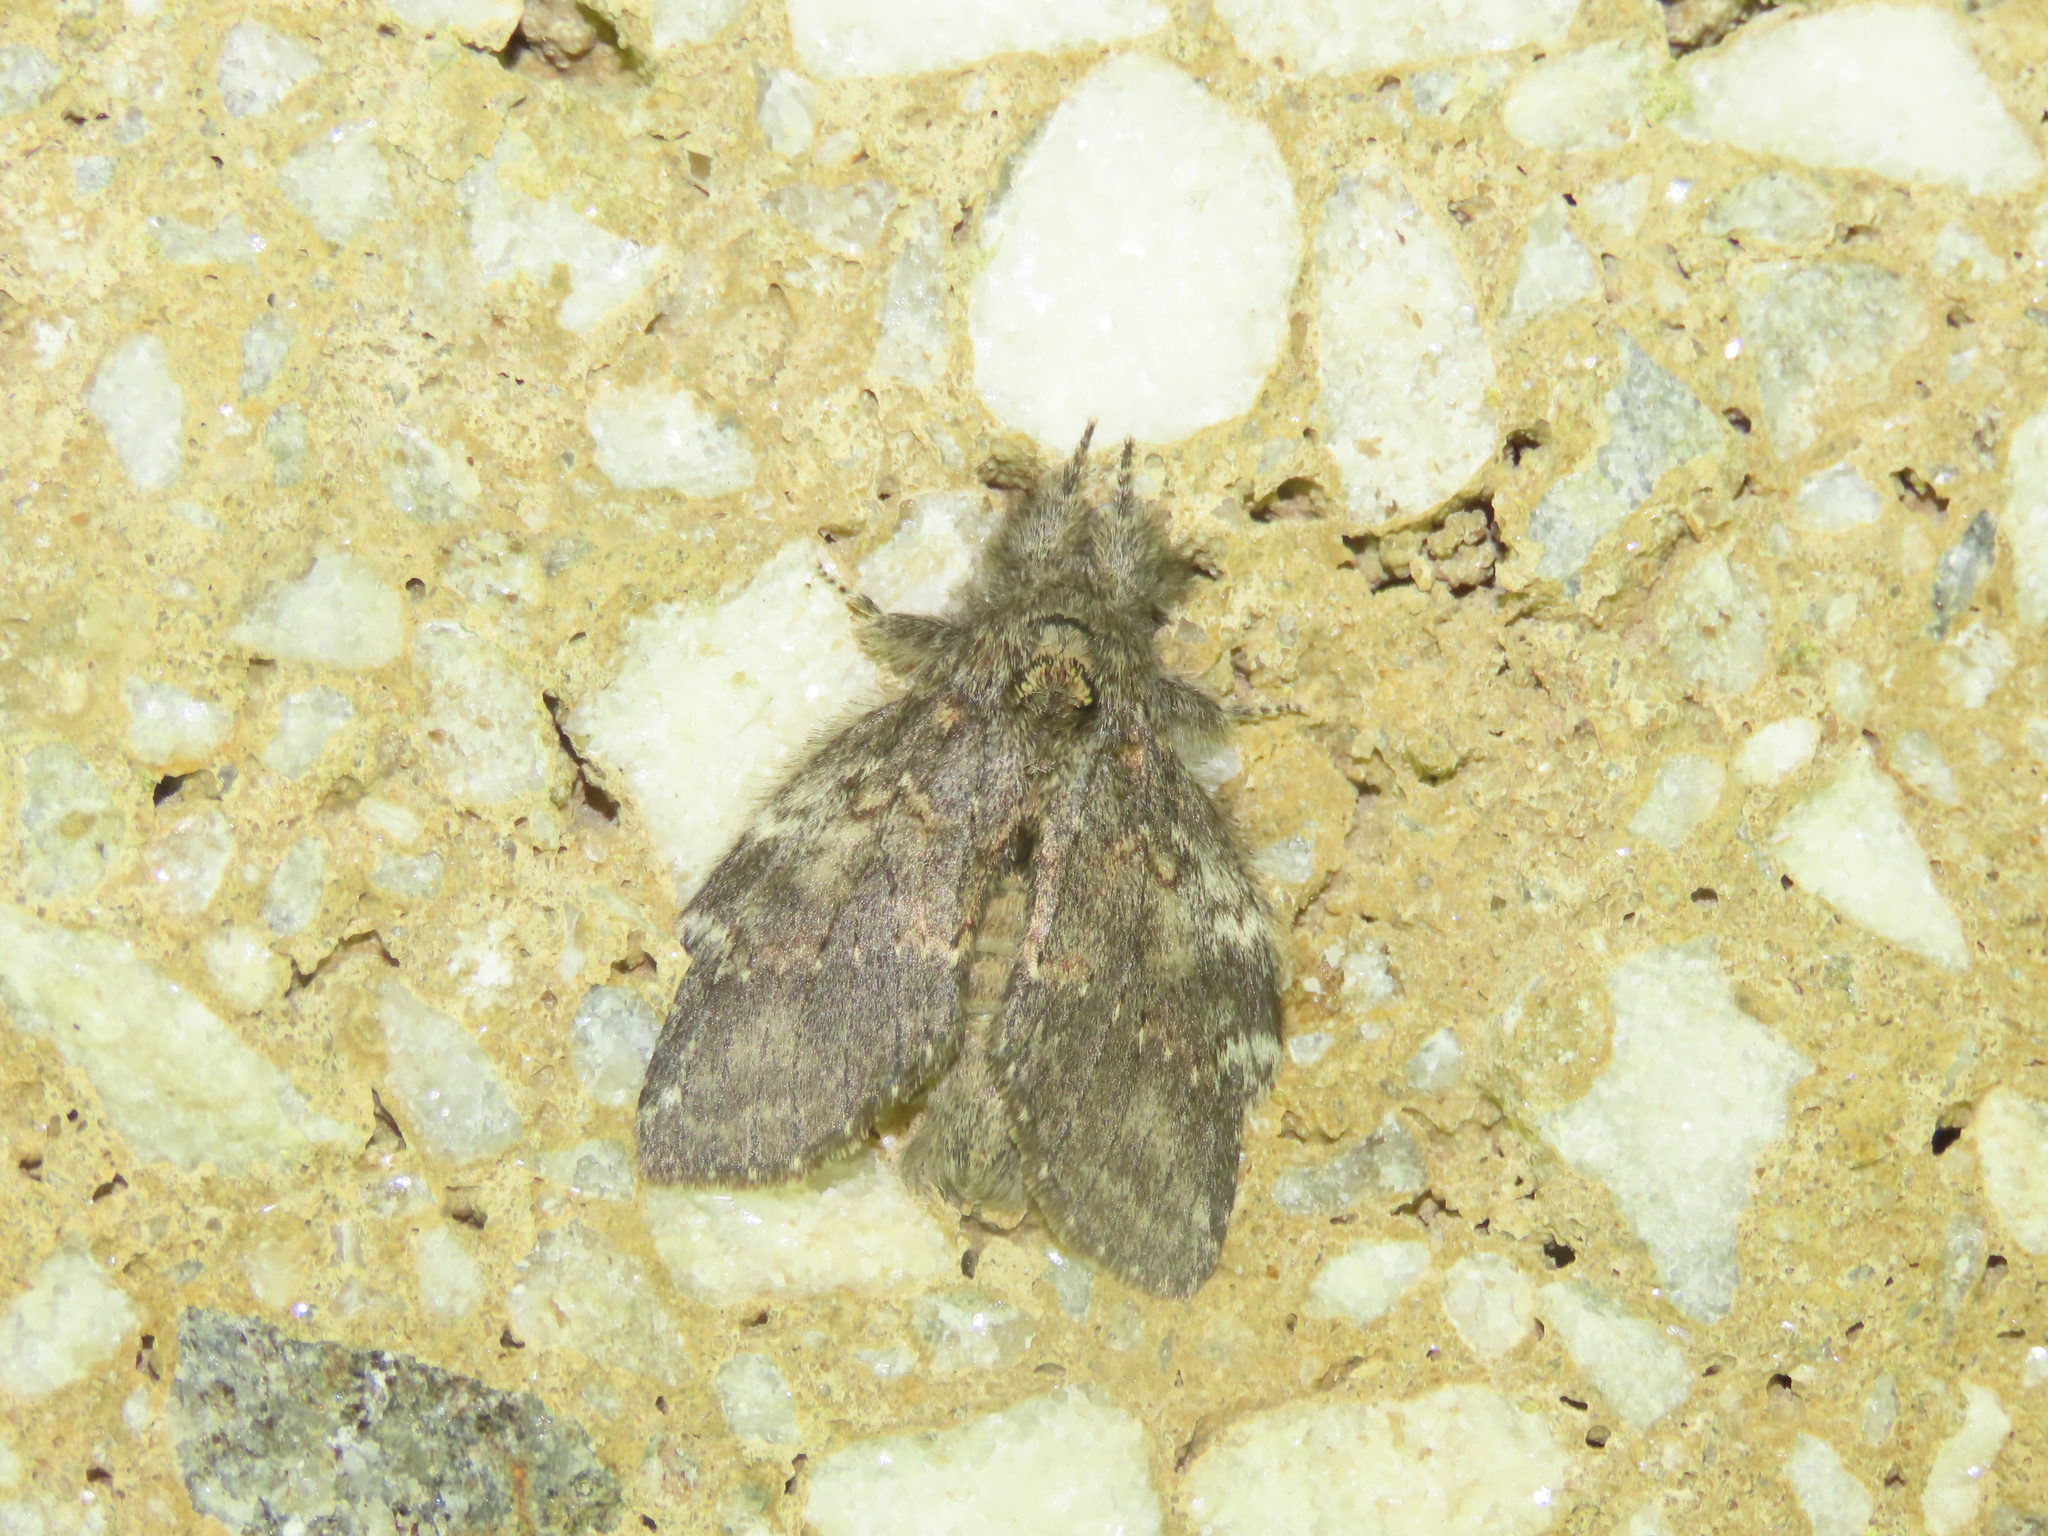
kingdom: Animalia
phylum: Arthropoda
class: Insecta
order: Lepidoptera
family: Notodontidae
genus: Peridea
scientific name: Peridea angulosa
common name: Angulose prominent
